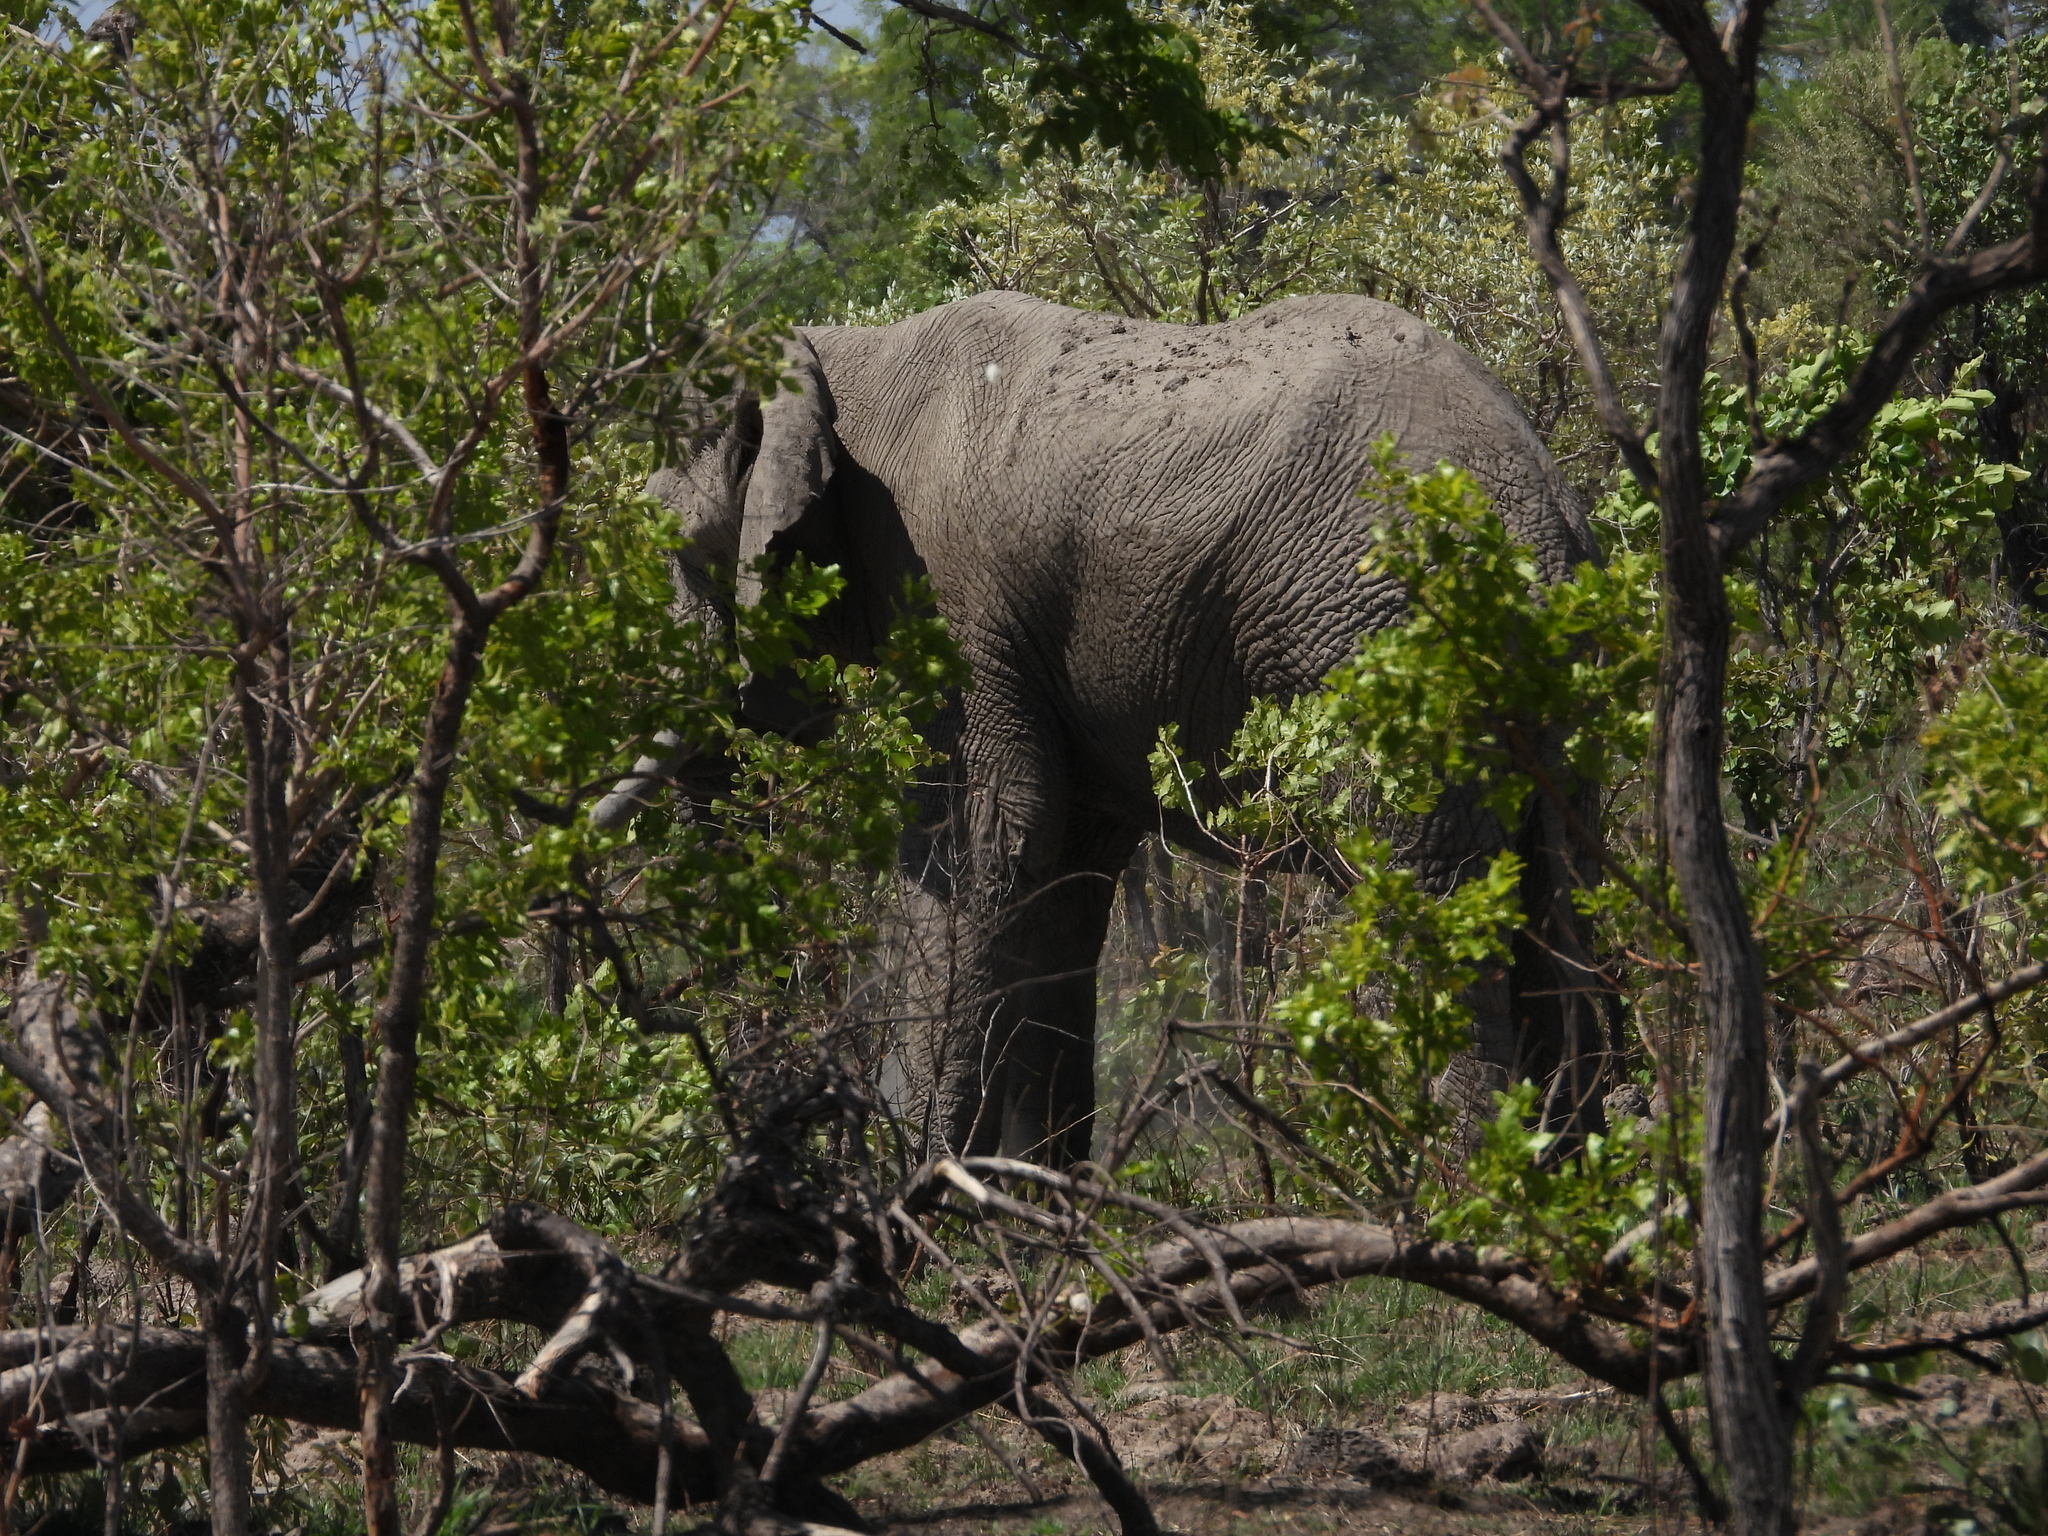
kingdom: Animalia
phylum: Chordata
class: Mammalia
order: Proboscidea
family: Elephantidae
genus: Loxodonta
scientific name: Loxodonta africana
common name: African elephant
